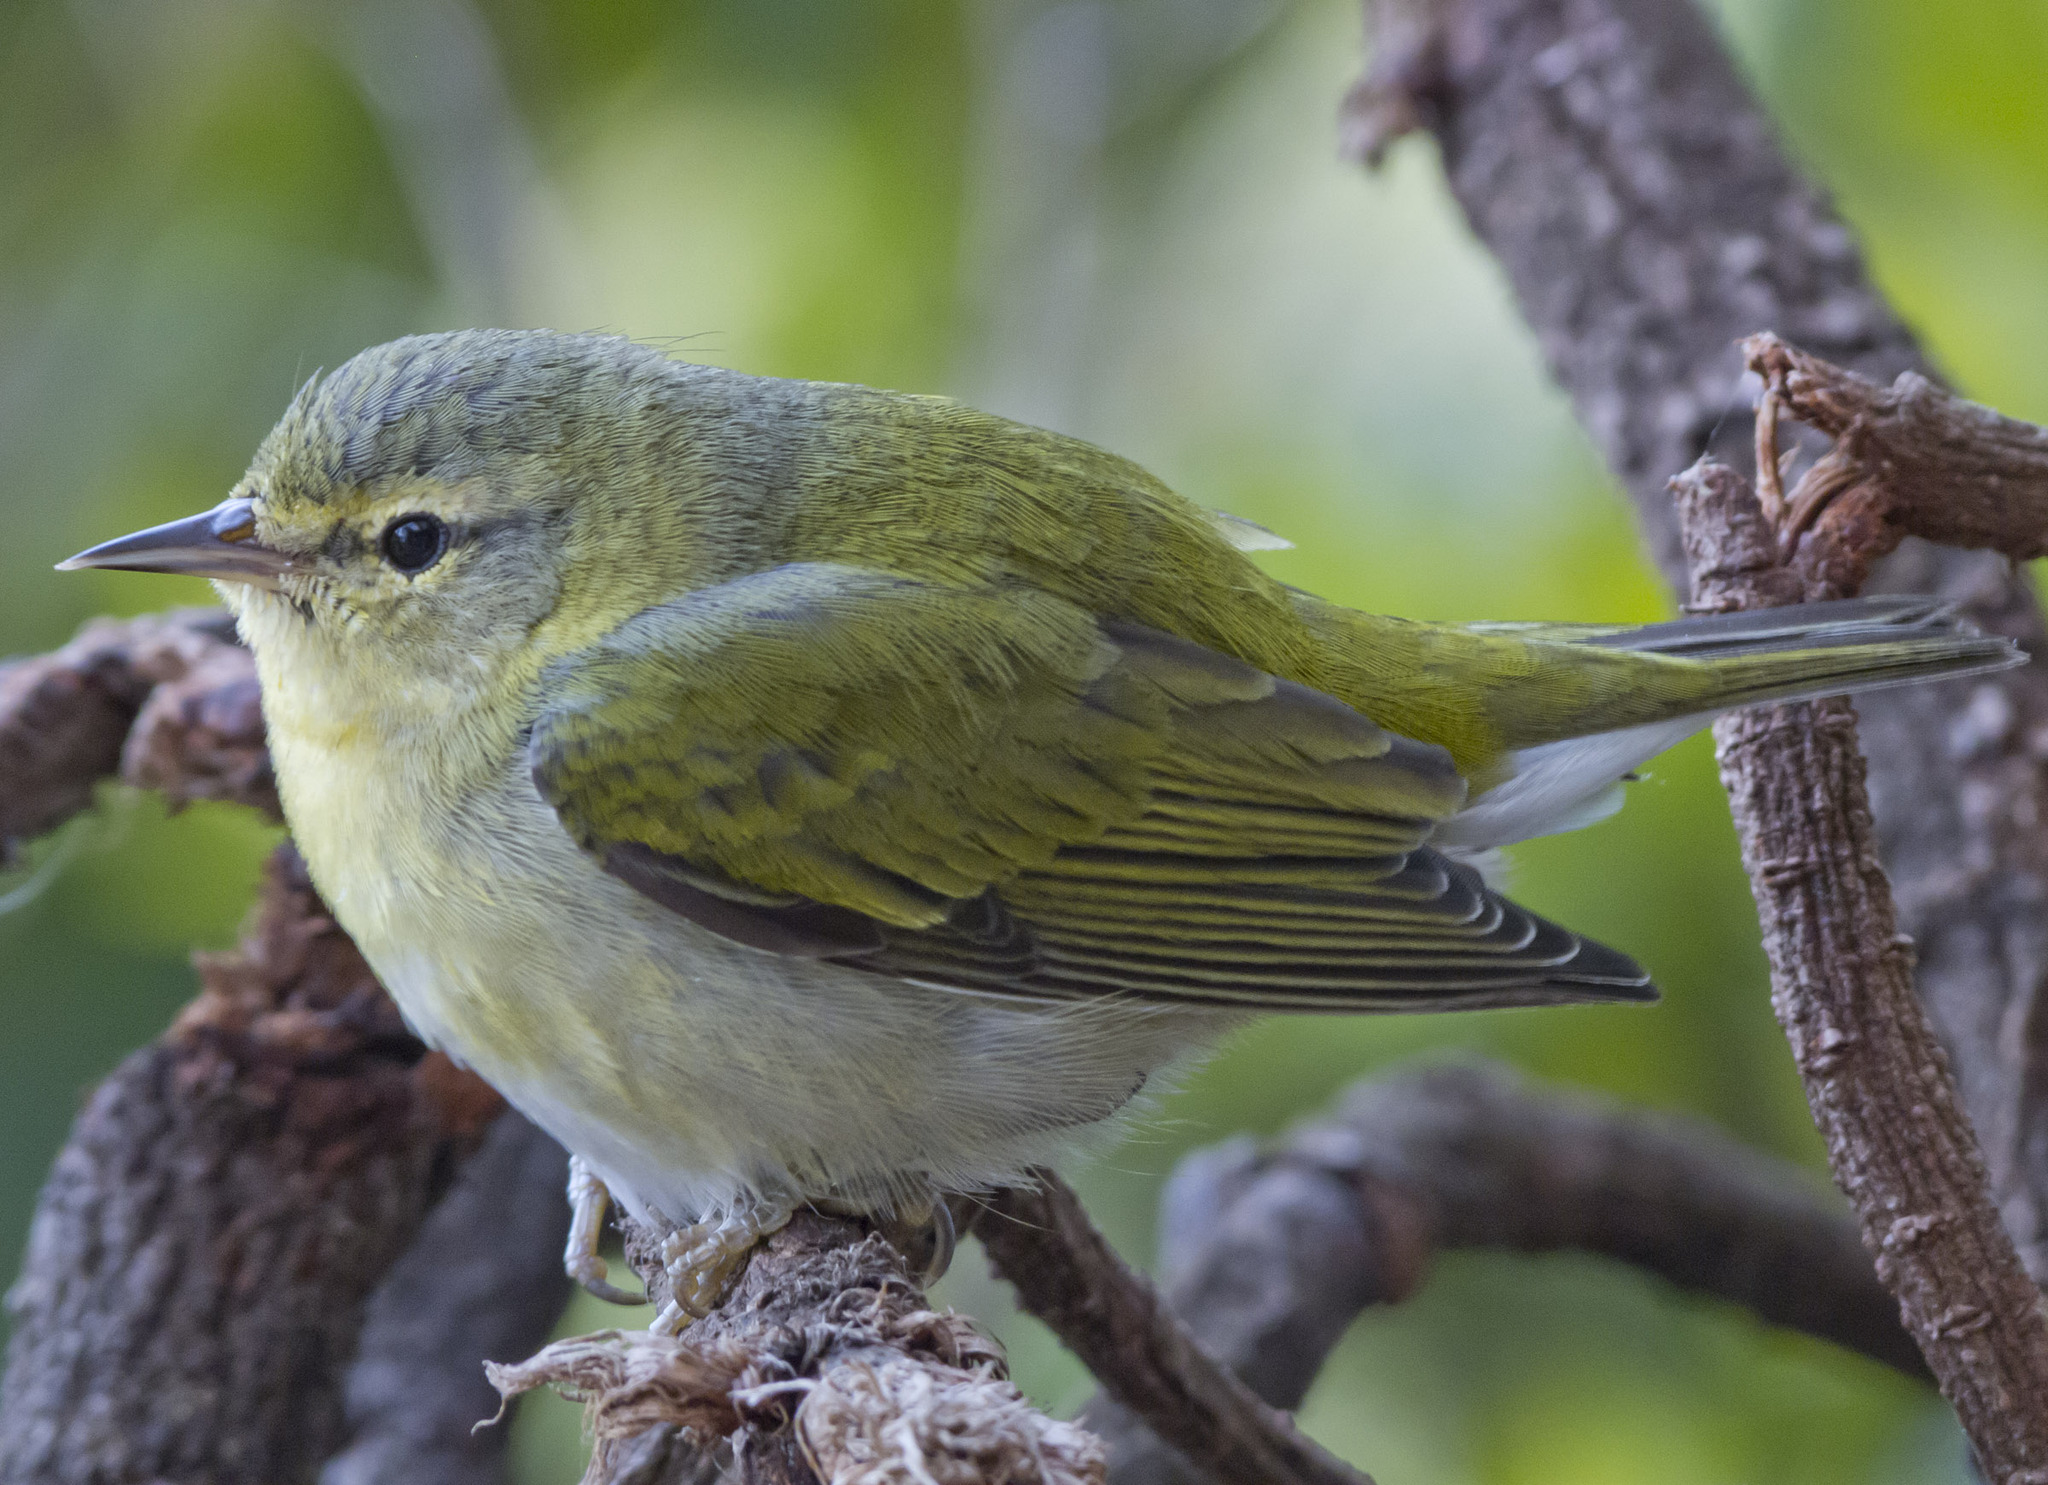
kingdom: Animalia
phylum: Chordata
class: Aves
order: Passeriformes
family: Parulidae
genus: Leiothlypis
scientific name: Leiothlypis peregrina
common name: Tennessee warbler
